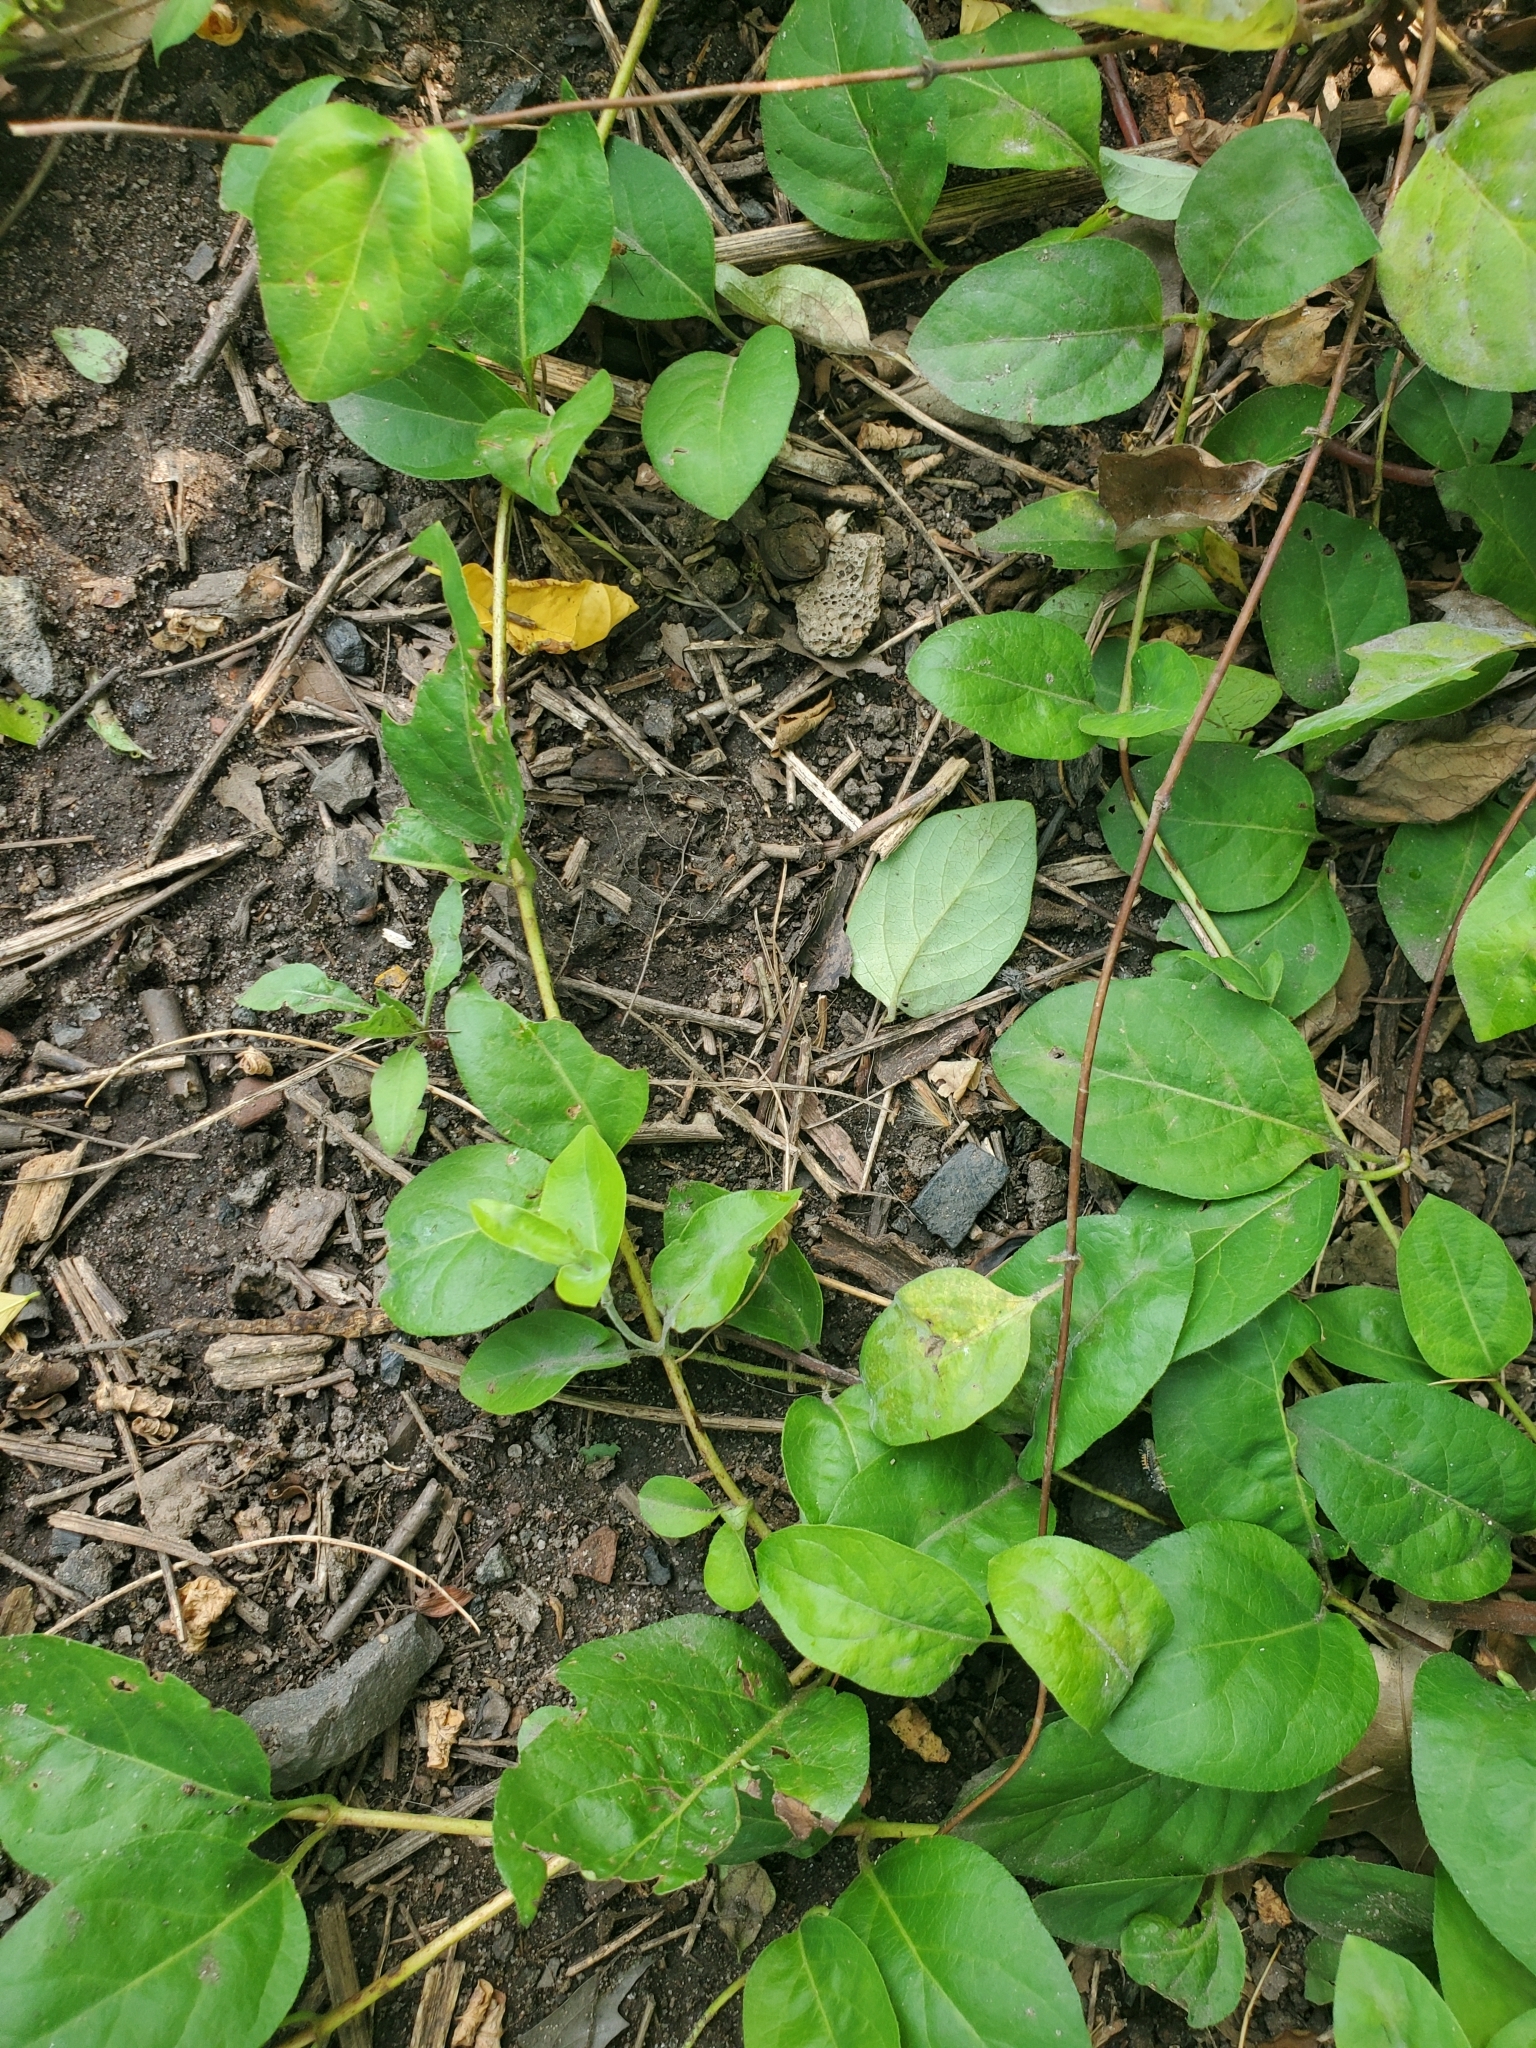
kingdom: Plantae
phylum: Tracheophyta
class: Magnoliopsida
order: Dipsacales
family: Caprifoliaceae
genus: Lonicera
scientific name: Lonicera japonica
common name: Japanese honeysuckle
